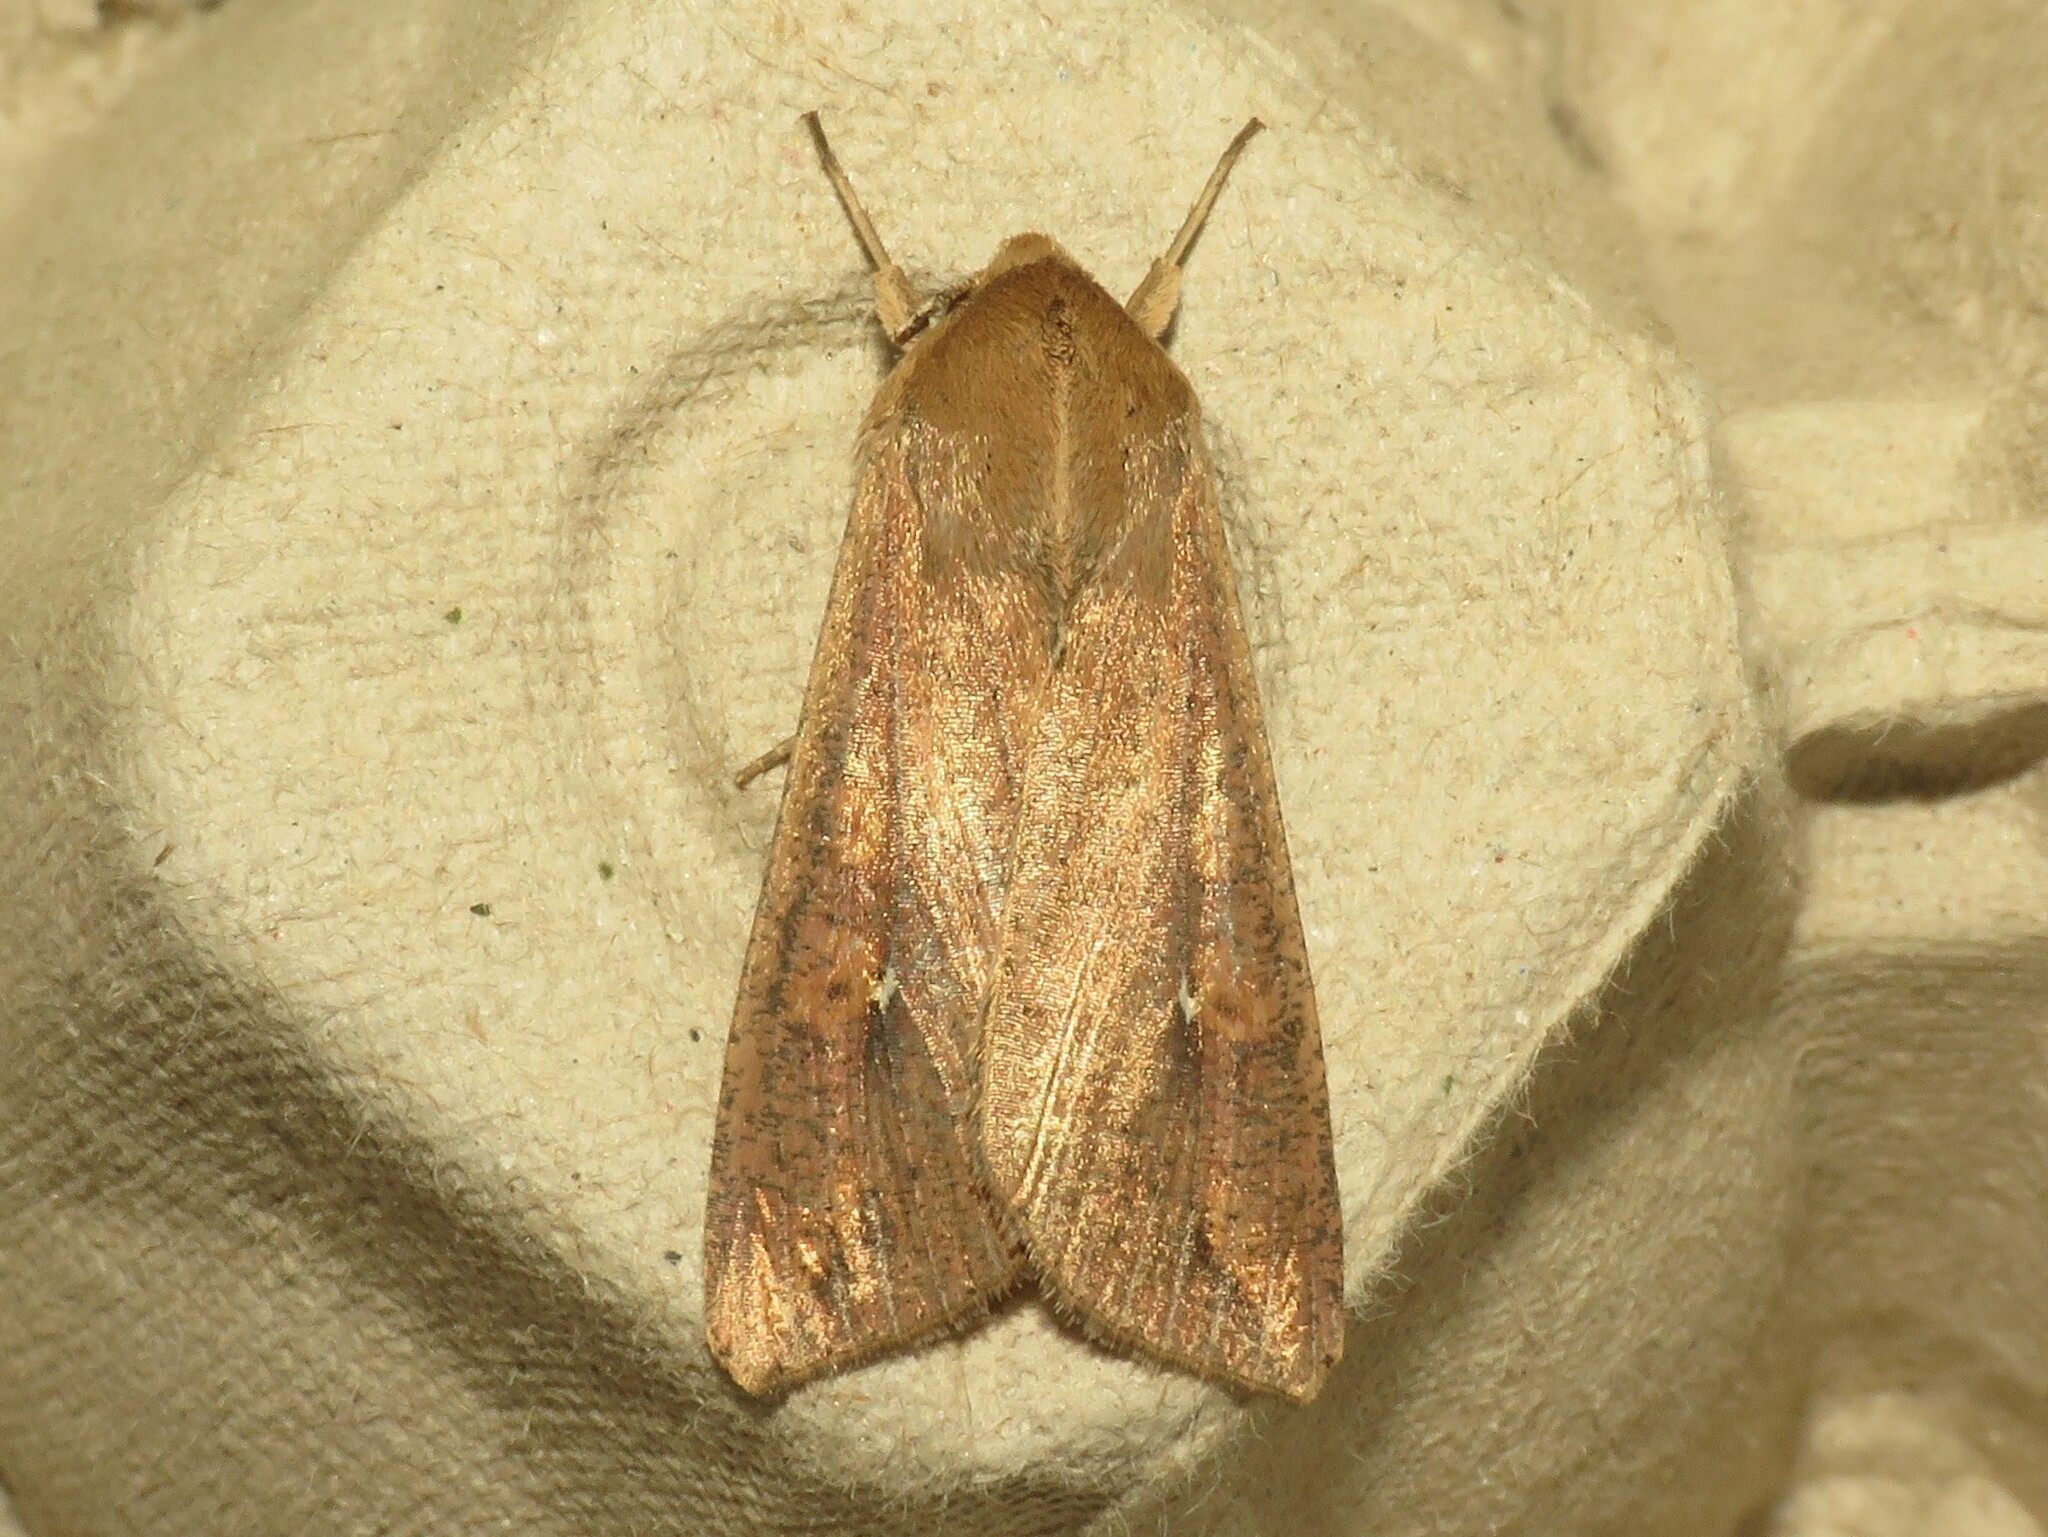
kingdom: Animalia
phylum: Arthropoda
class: Insecta
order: Lepidoptera
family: Noctuidae
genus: Mythimna
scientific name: Mythimna unipuncta
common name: White-speck
